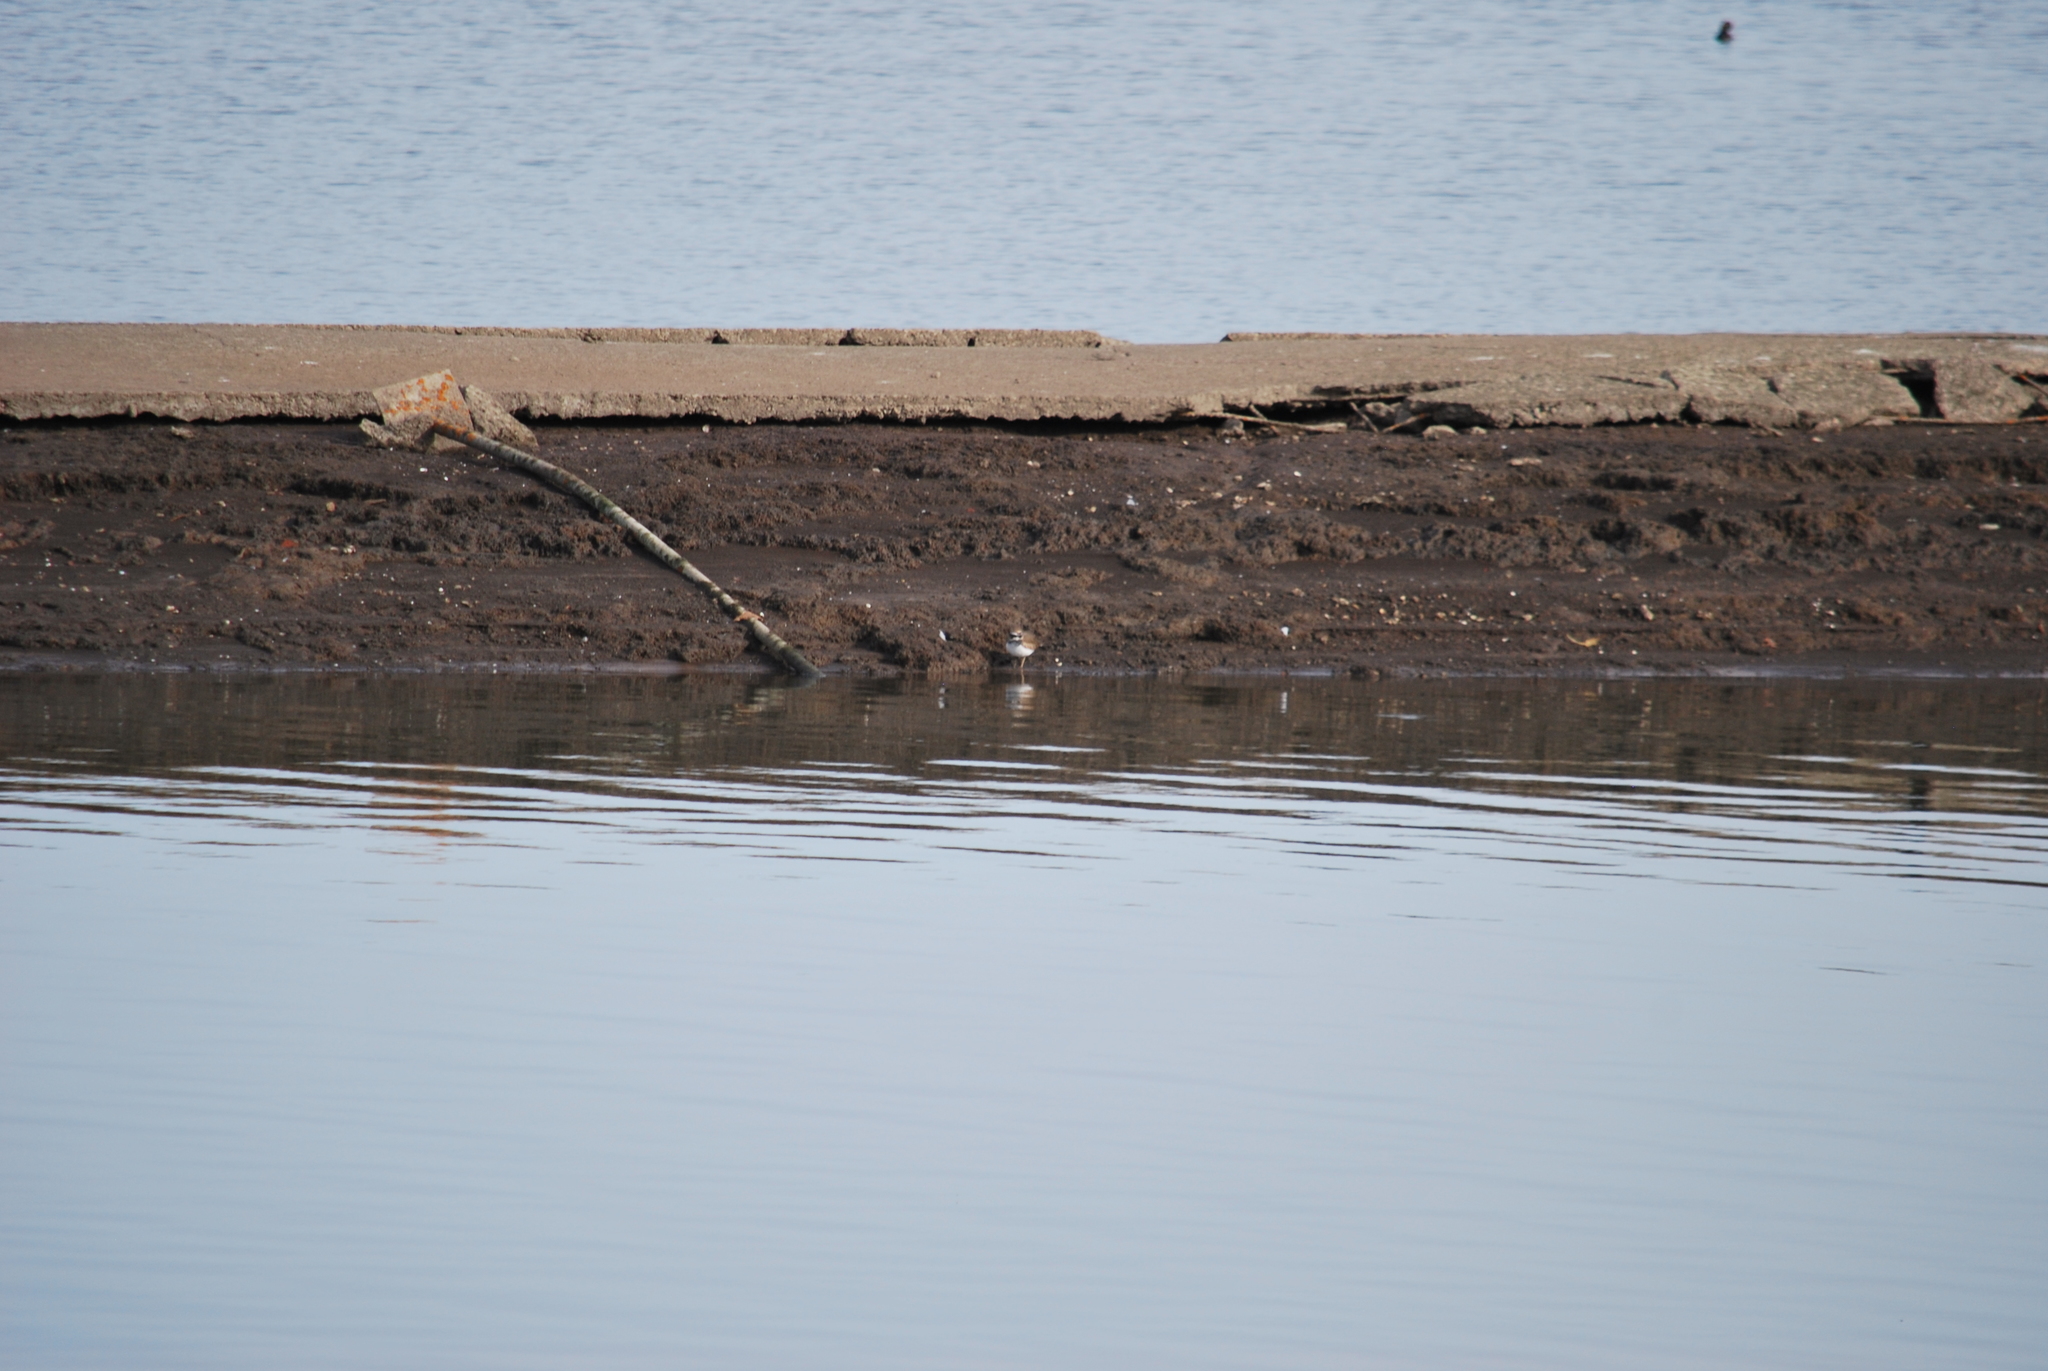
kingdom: Animalia
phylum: Chordata
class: Aves
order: Charadriiformes
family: Charadriidae
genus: Charadrius
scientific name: Charadrius vociferus
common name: Killdeer
